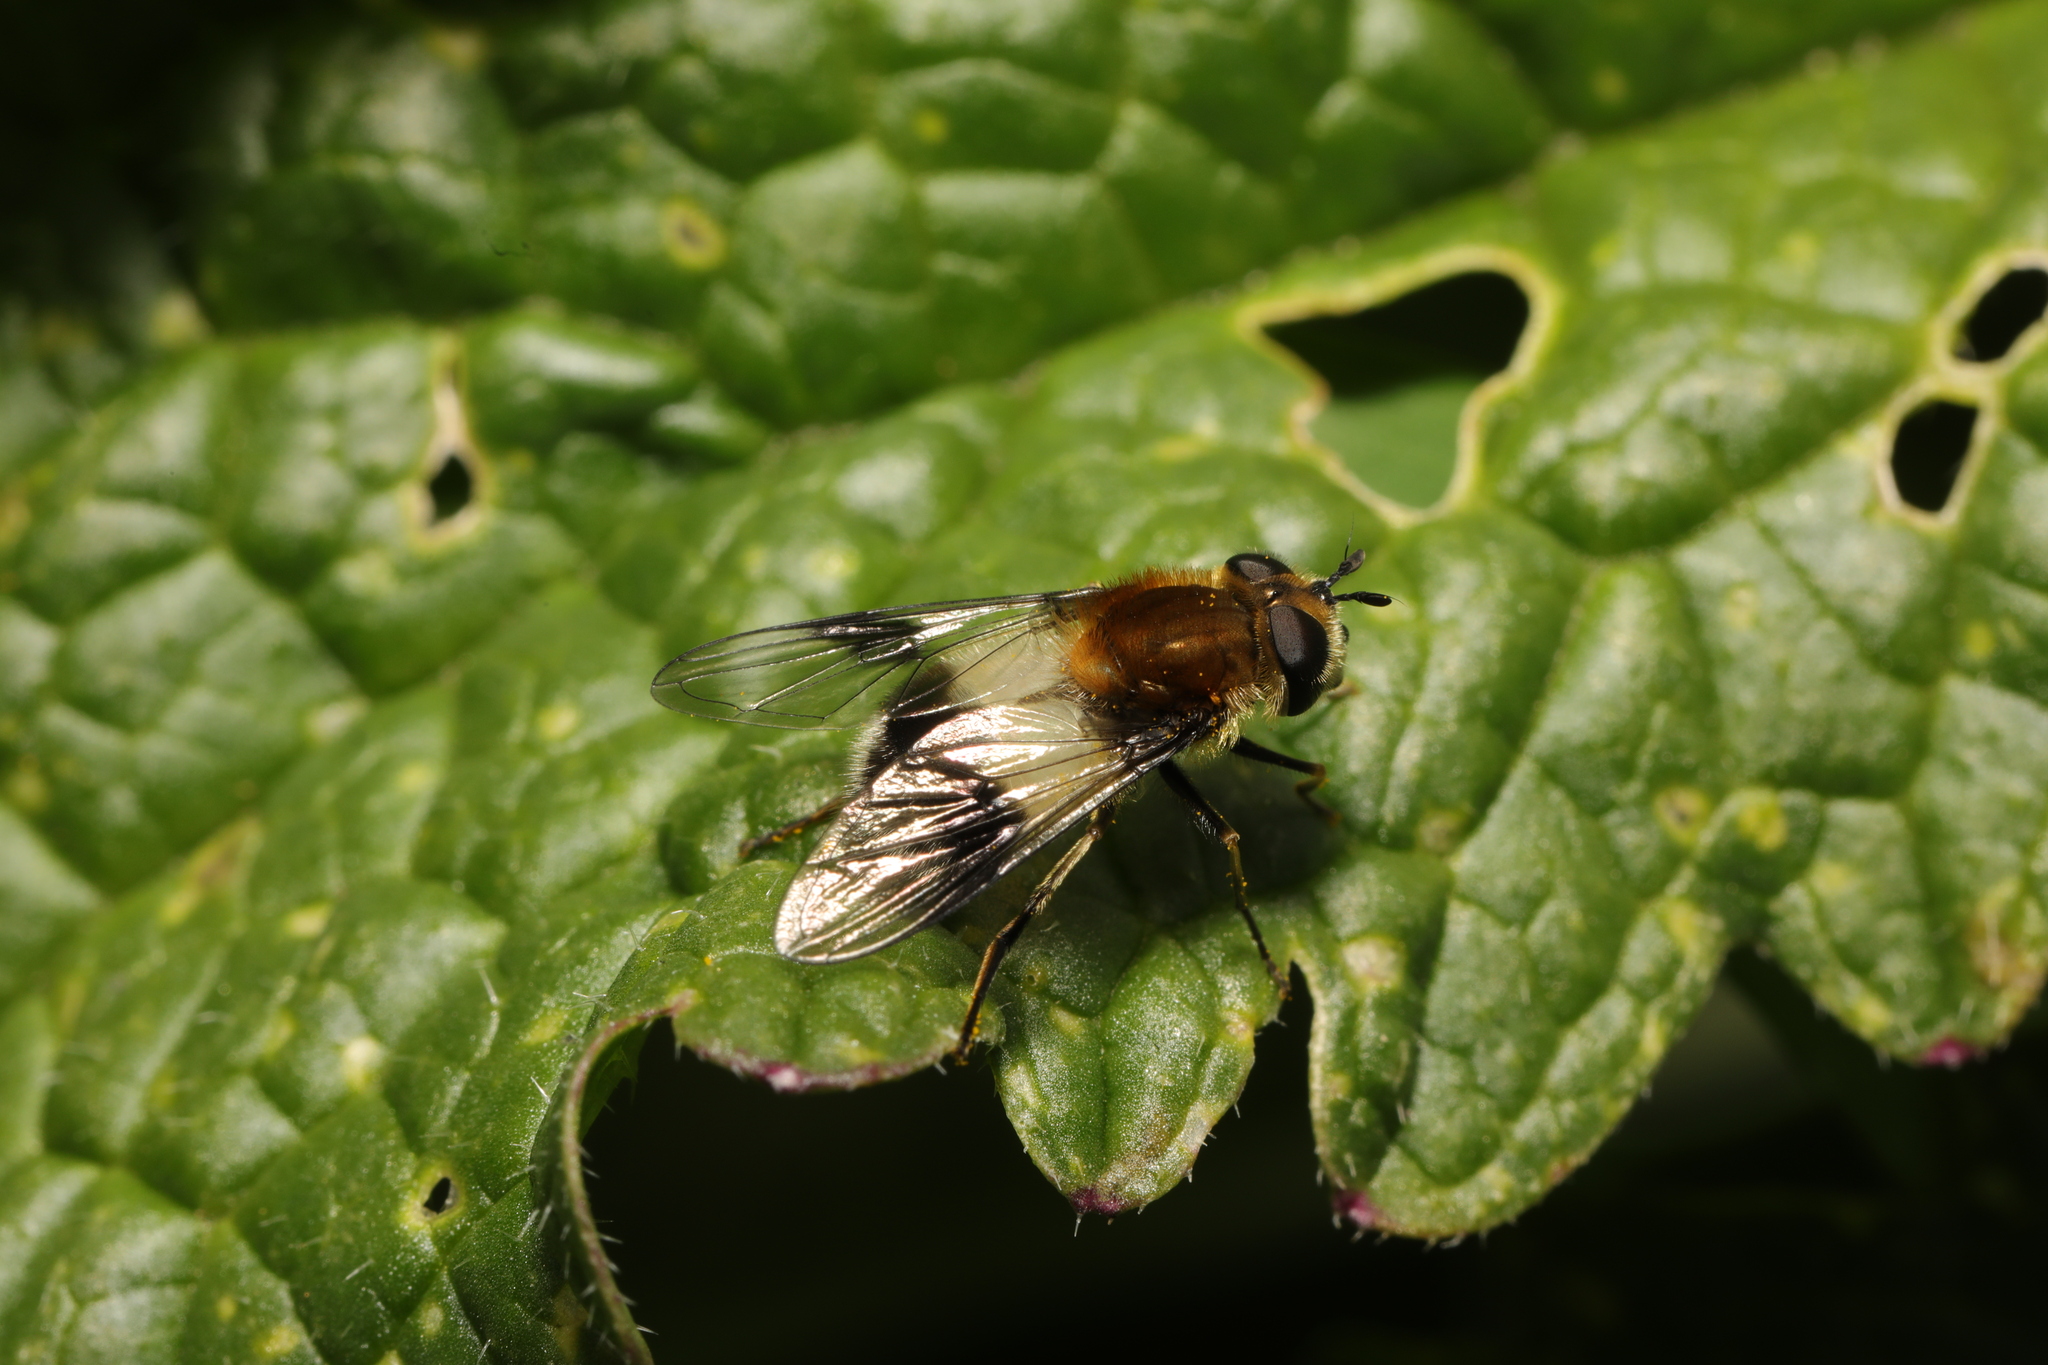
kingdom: Animalia
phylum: Arthropoda
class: Insecta
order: Diptera
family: Syrphidae
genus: Leucozona
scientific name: Leucozona lucorum
